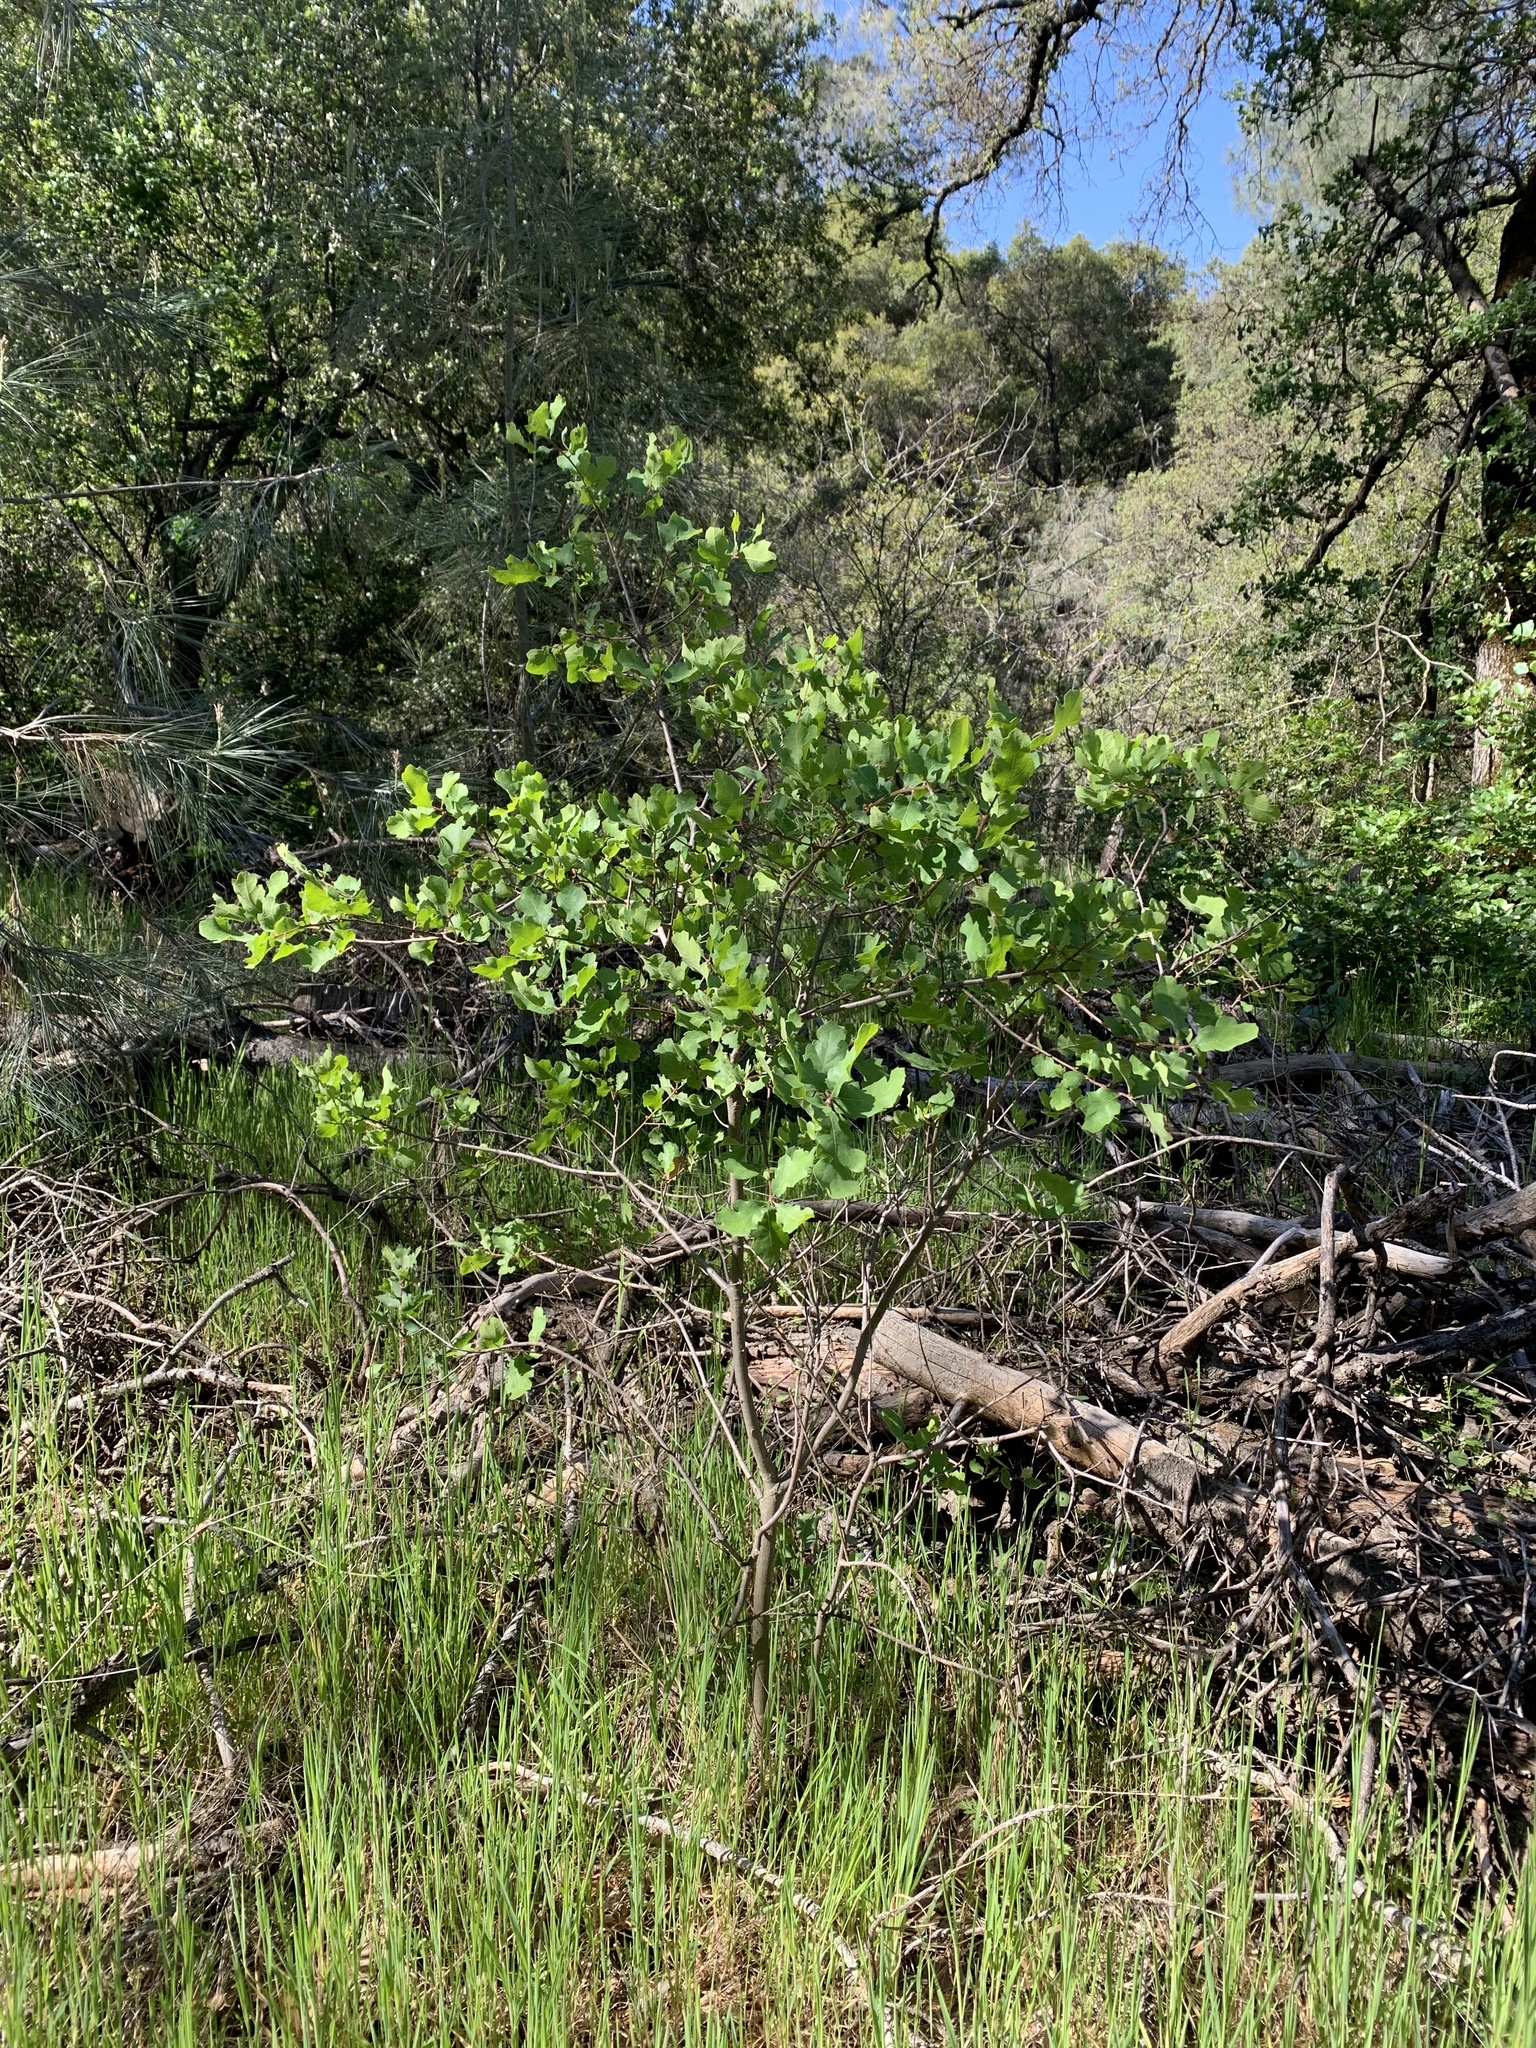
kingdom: Plantae
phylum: Tracheophyta
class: Magnoliopsida
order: Fagales
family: Fagaceae
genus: Quercus
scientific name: Quercus douglasii
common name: Blue oak
